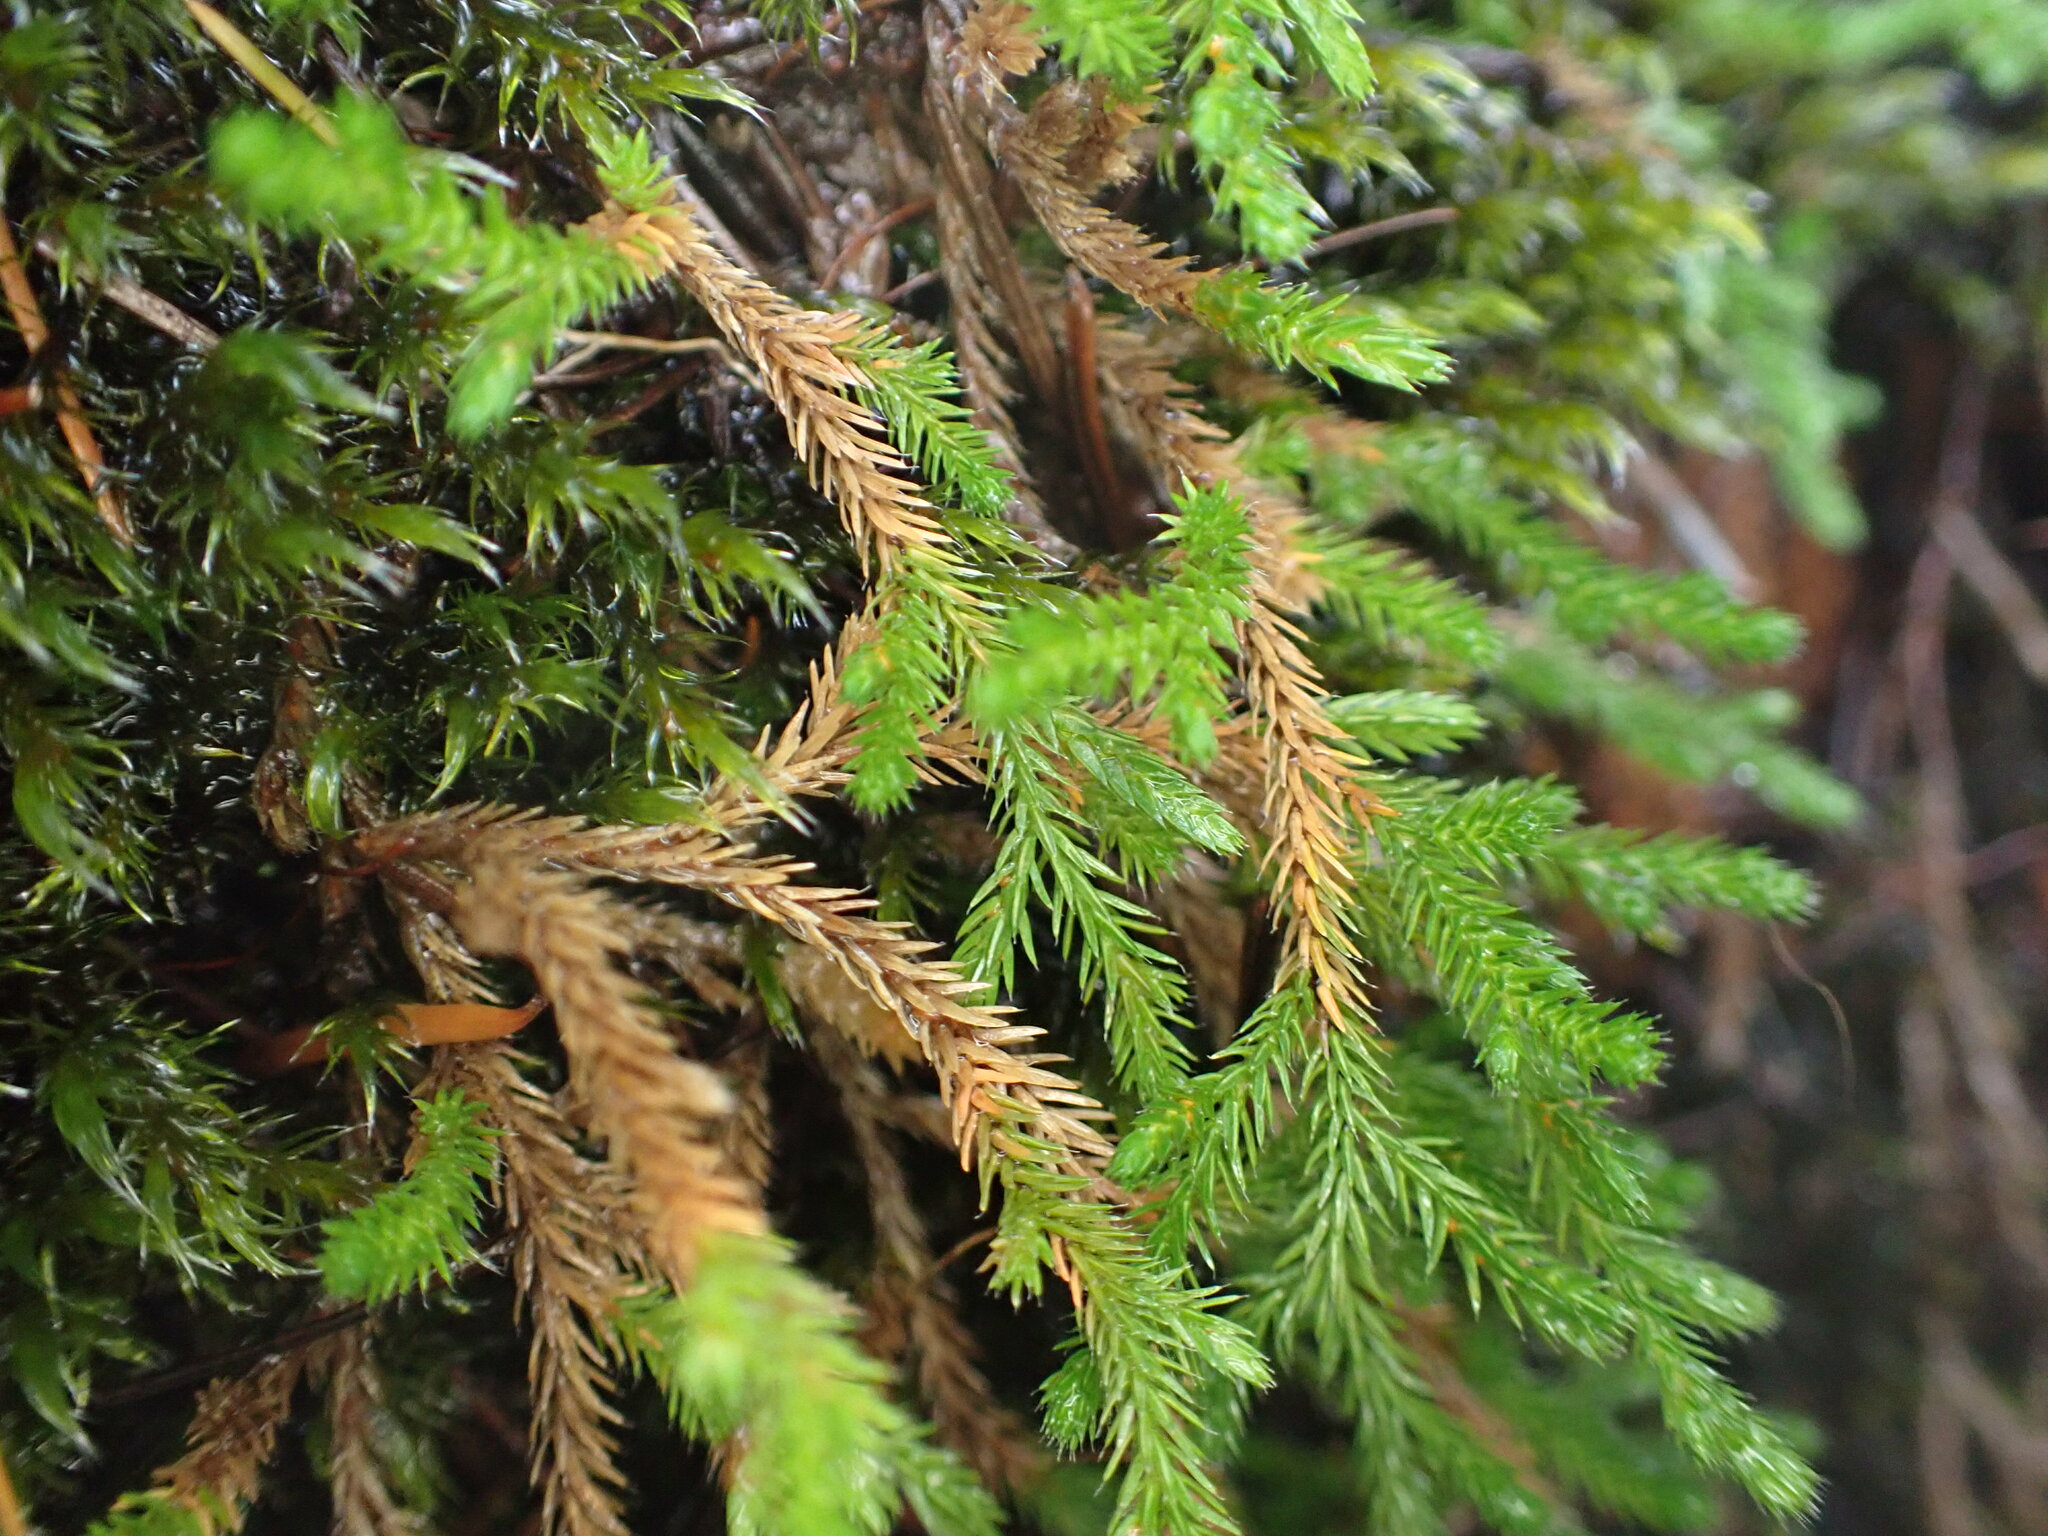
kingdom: Plantae
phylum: Tracheophyta
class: Lycopodiopsida
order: Selaginellales
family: Selaginellaceae
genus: Selaginella
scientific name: Selaginella wallacei
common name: Wallace's selaginella
